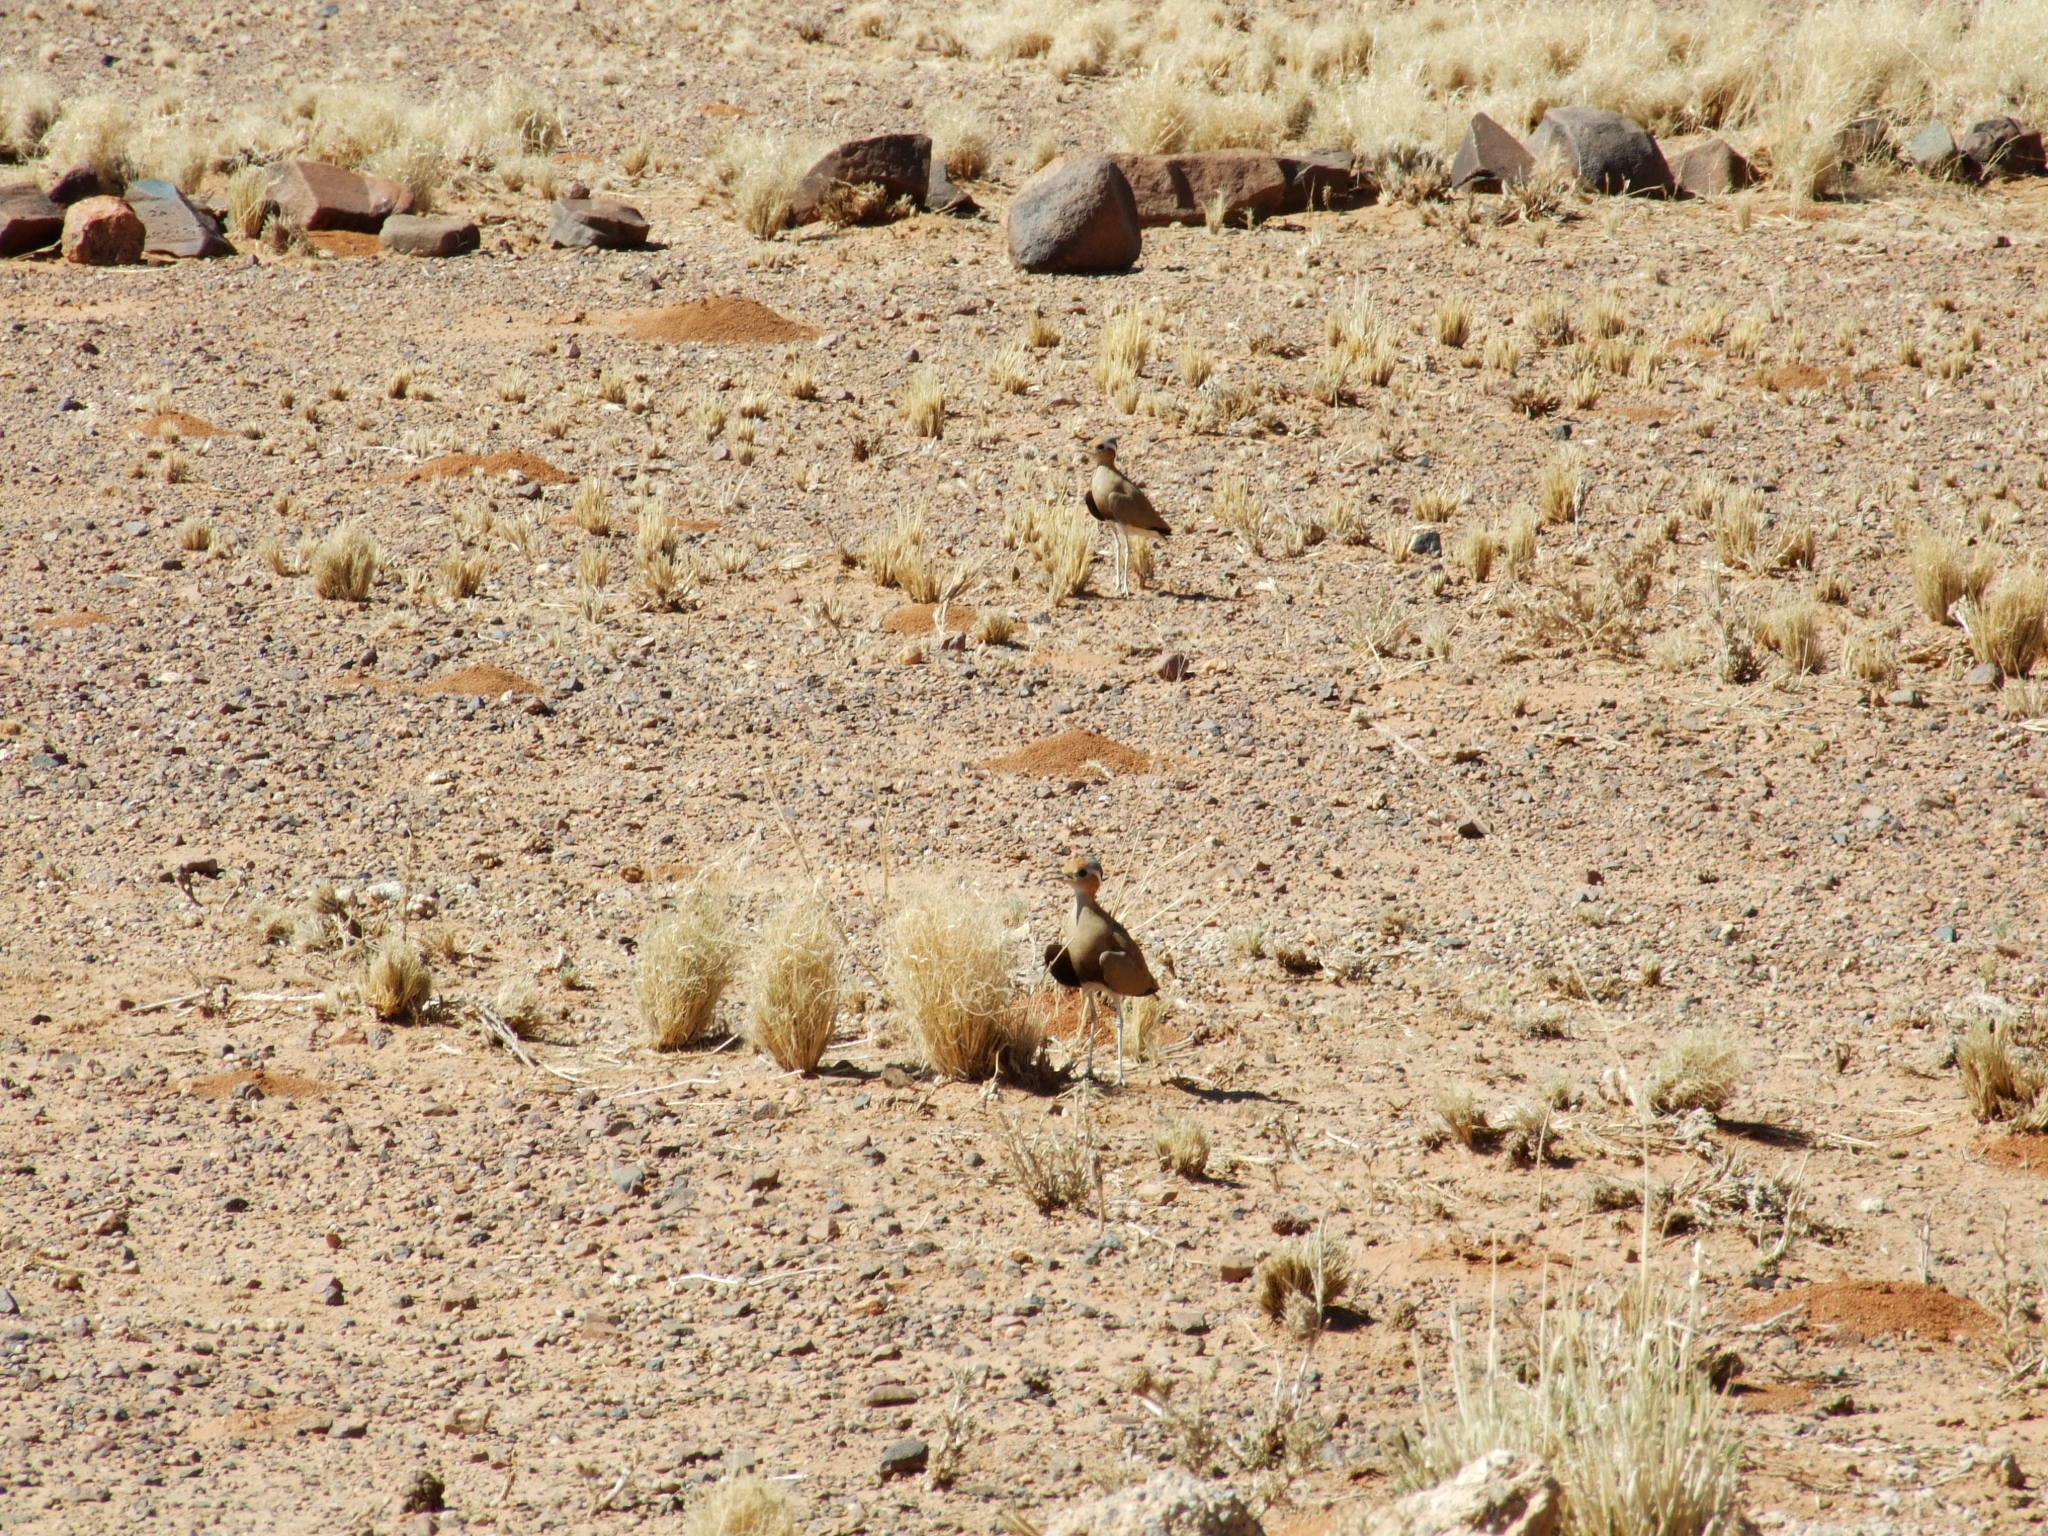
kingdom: Animalia
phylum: Chordata
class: Aves
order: Charadriiformes
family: Glareolidae
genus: Cursorius
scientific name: Cursorius rufus
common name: Burchell's courser
